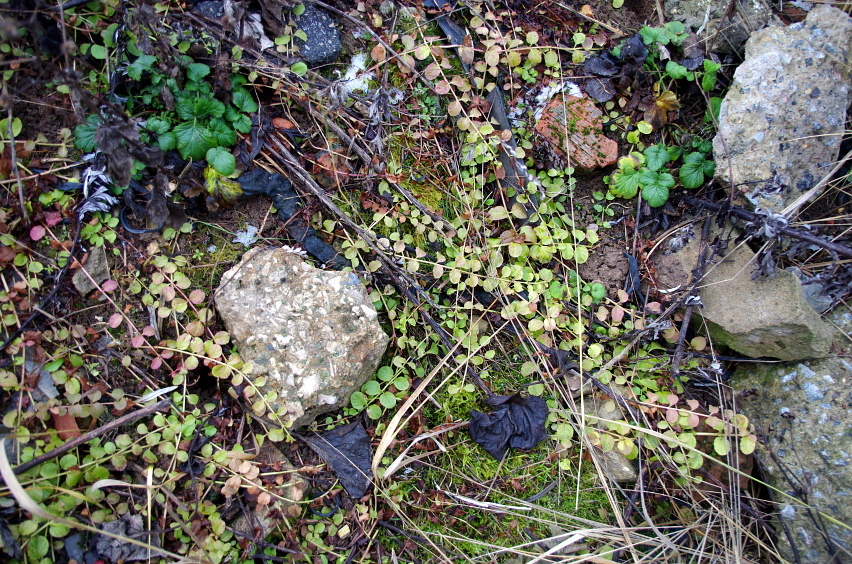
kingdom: Plantae
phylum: Tracheophyta
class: Magnoliopsida
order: Ericales
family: Primulaceae
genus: Lysimachia
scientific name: Lysimachia nummularia
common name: Moneywort
